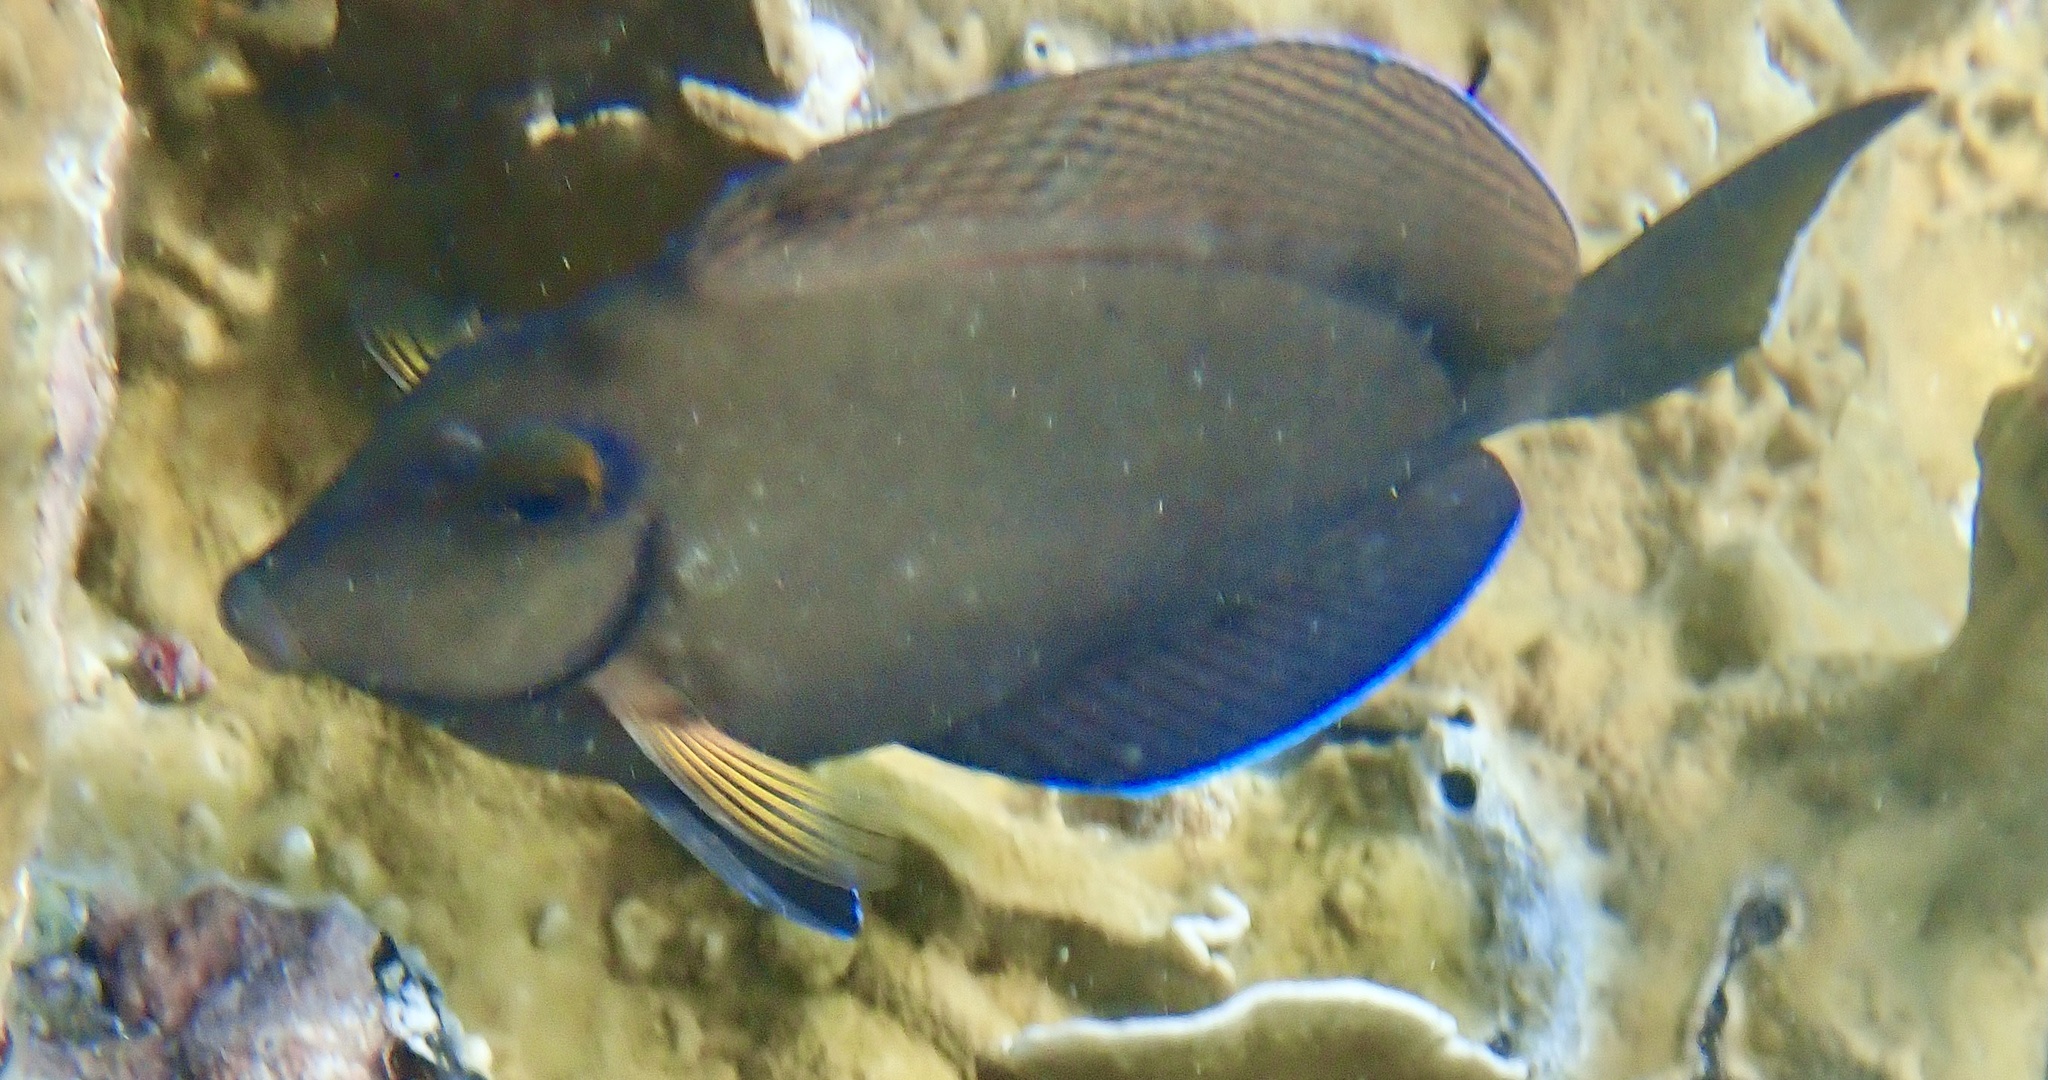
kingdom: Animalia
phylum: Chordata
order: Perciformes
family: Acanthuridae
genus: Acanthurus
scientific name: Acanthurus bahianus
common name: Ocean surgeon
